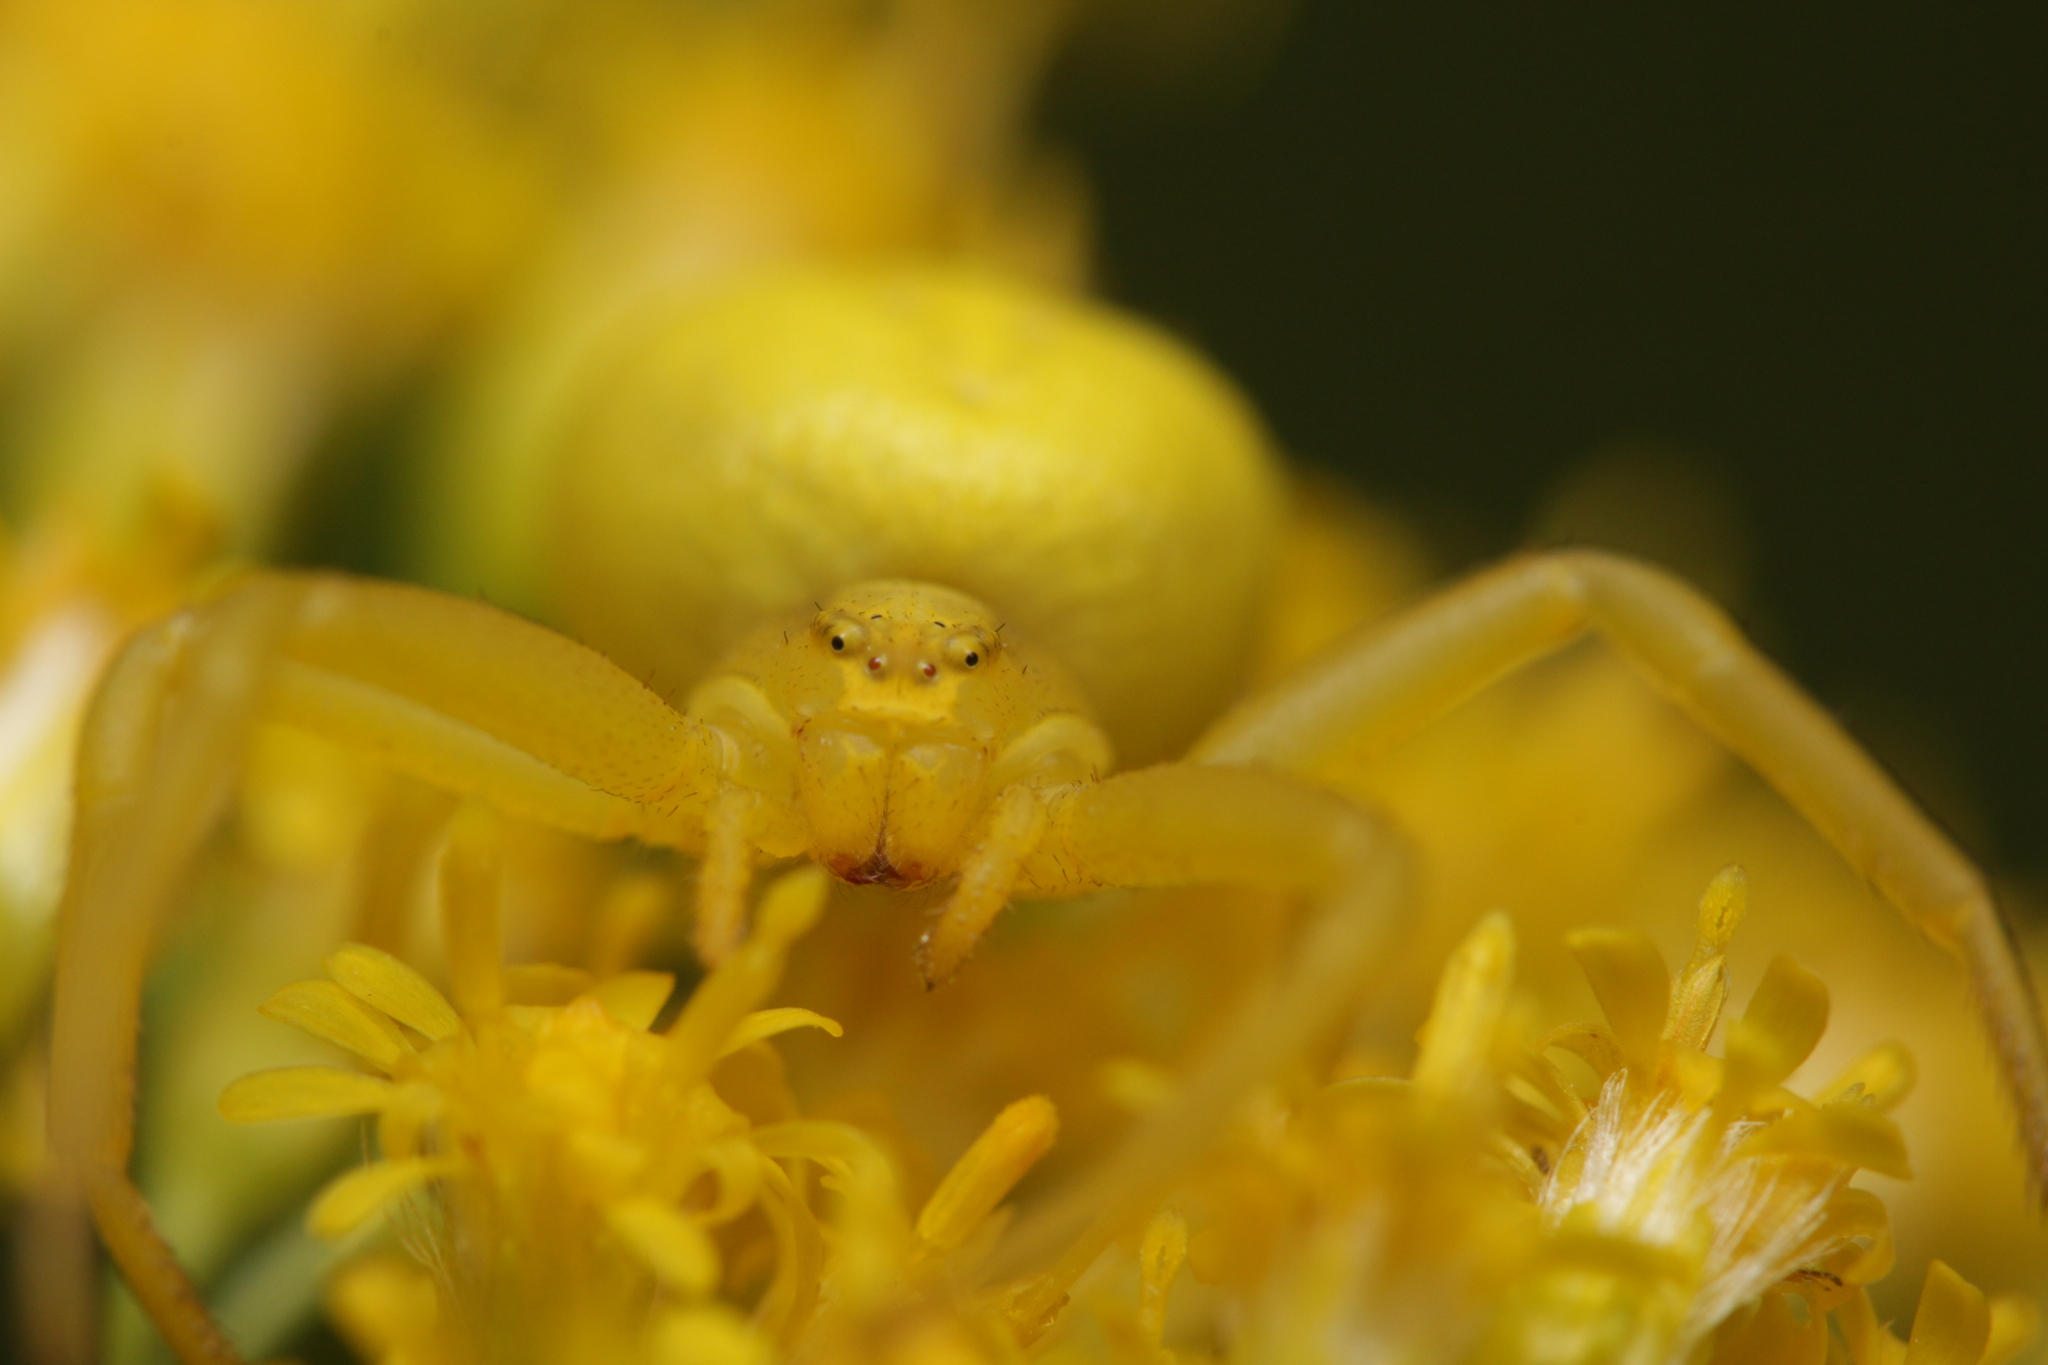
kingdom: Animalia
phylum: Arthropoda
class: Arachnida
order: Araneae
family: Thomisidae
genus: Misumena
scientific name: Misumena vatia
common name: Goldenrod crab spider
